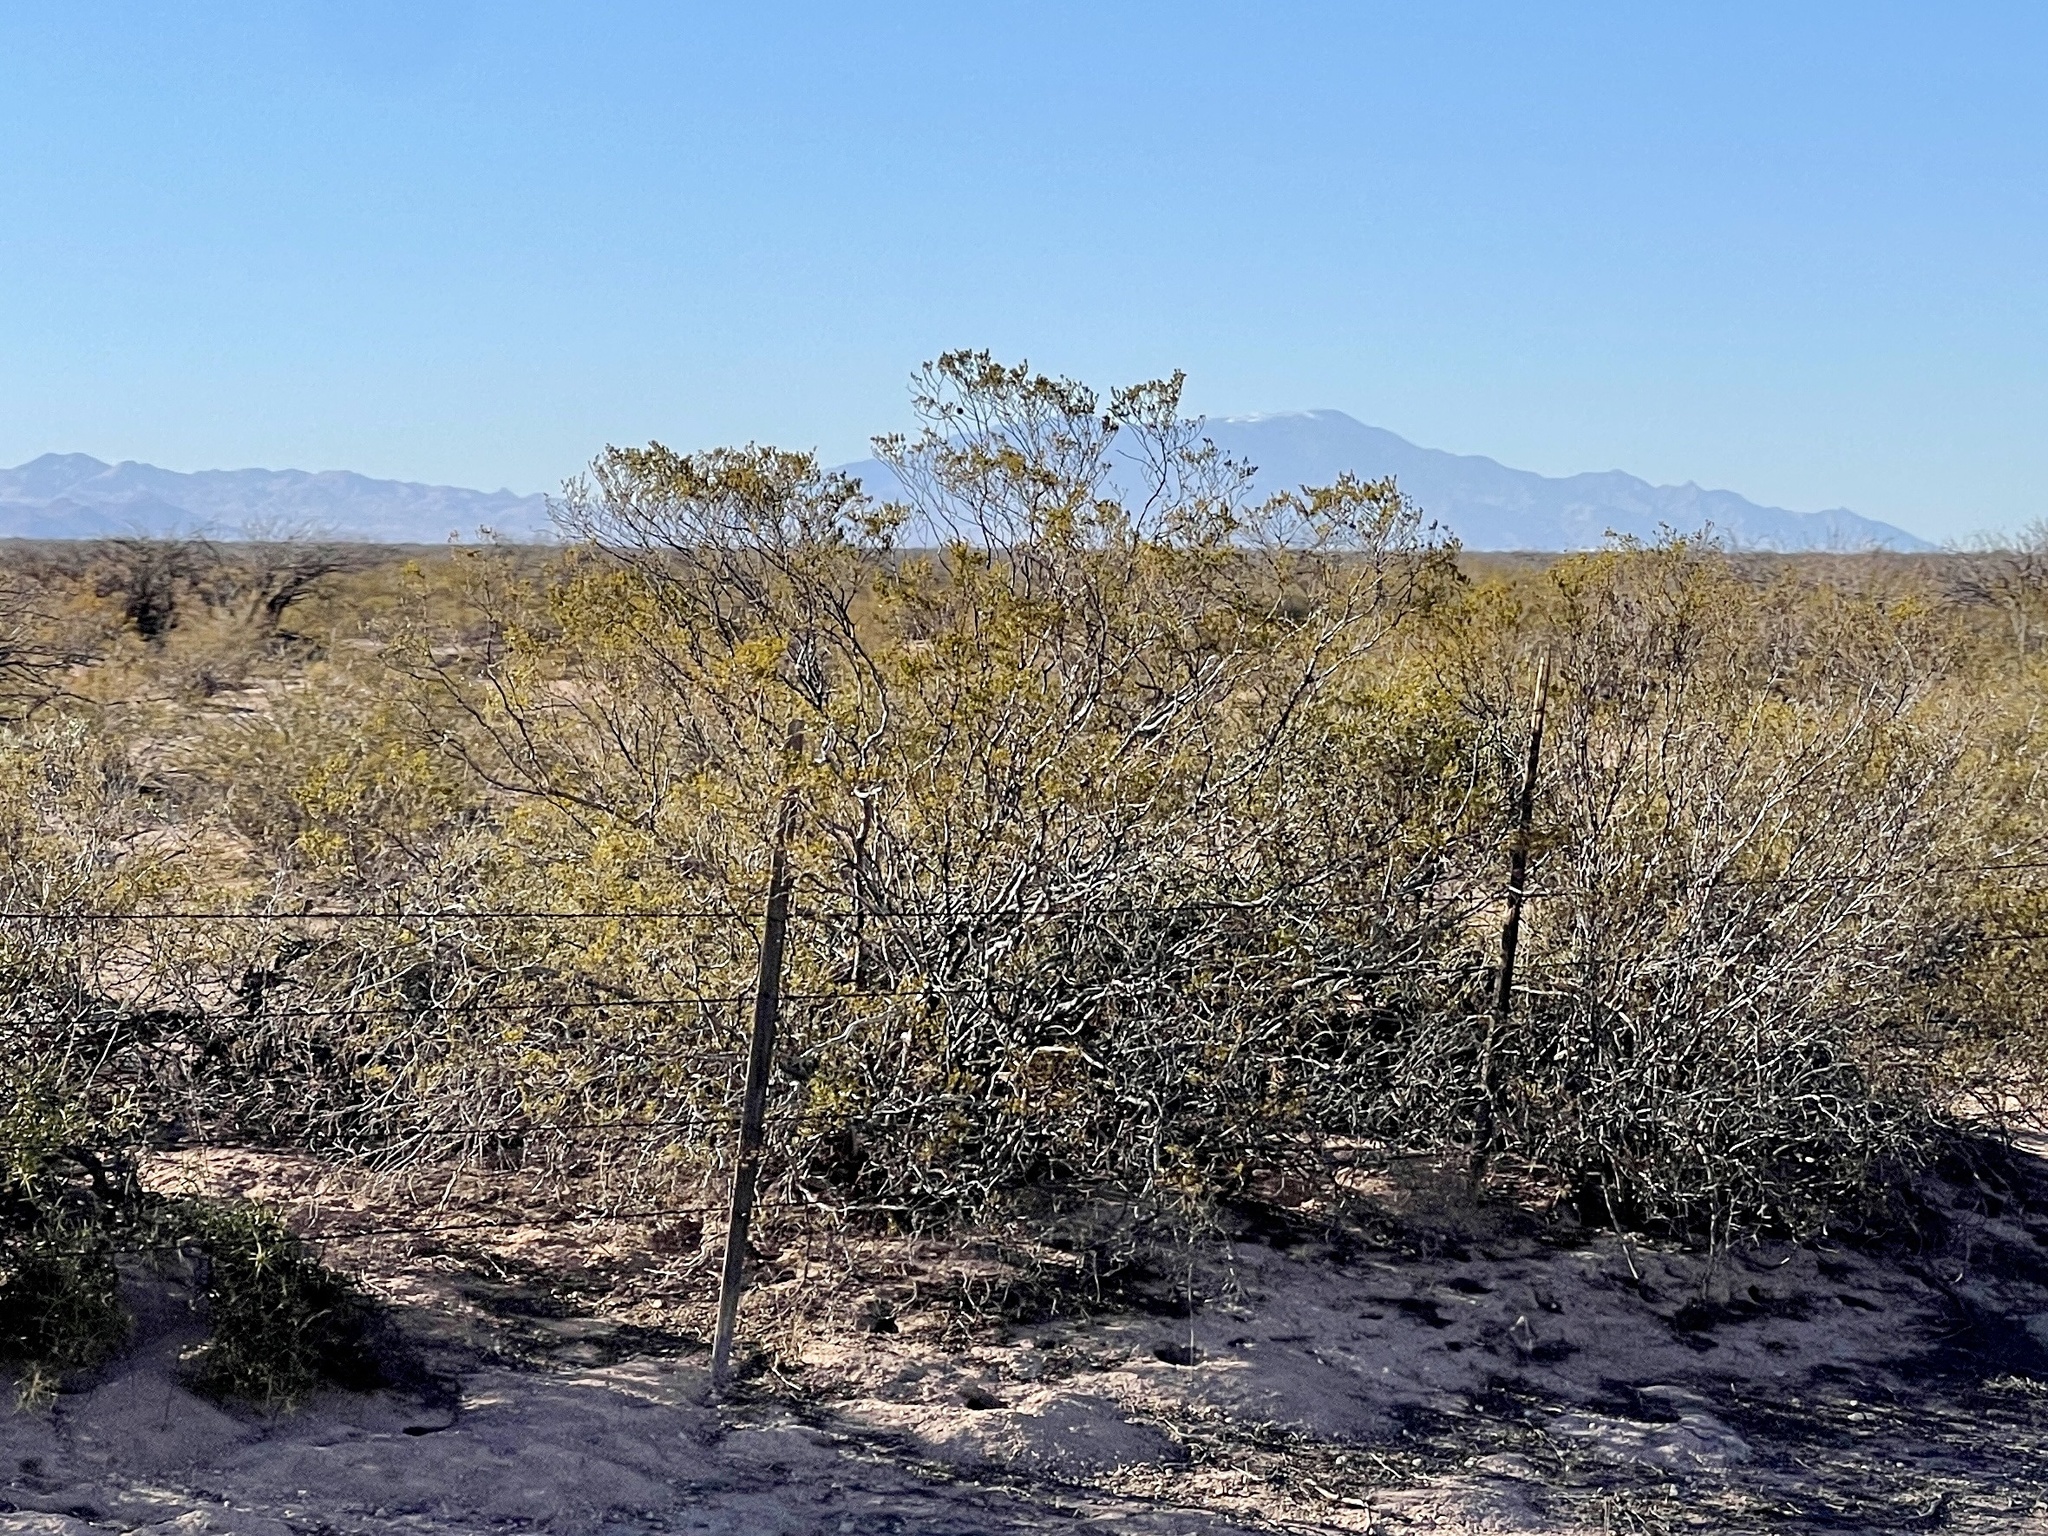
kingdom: Plantae
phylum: Tracheophyta
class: Magnoliopsida
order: Zygophyllales
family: Zygophyllaceae
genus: Larrea
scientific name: Larrea tridentata
